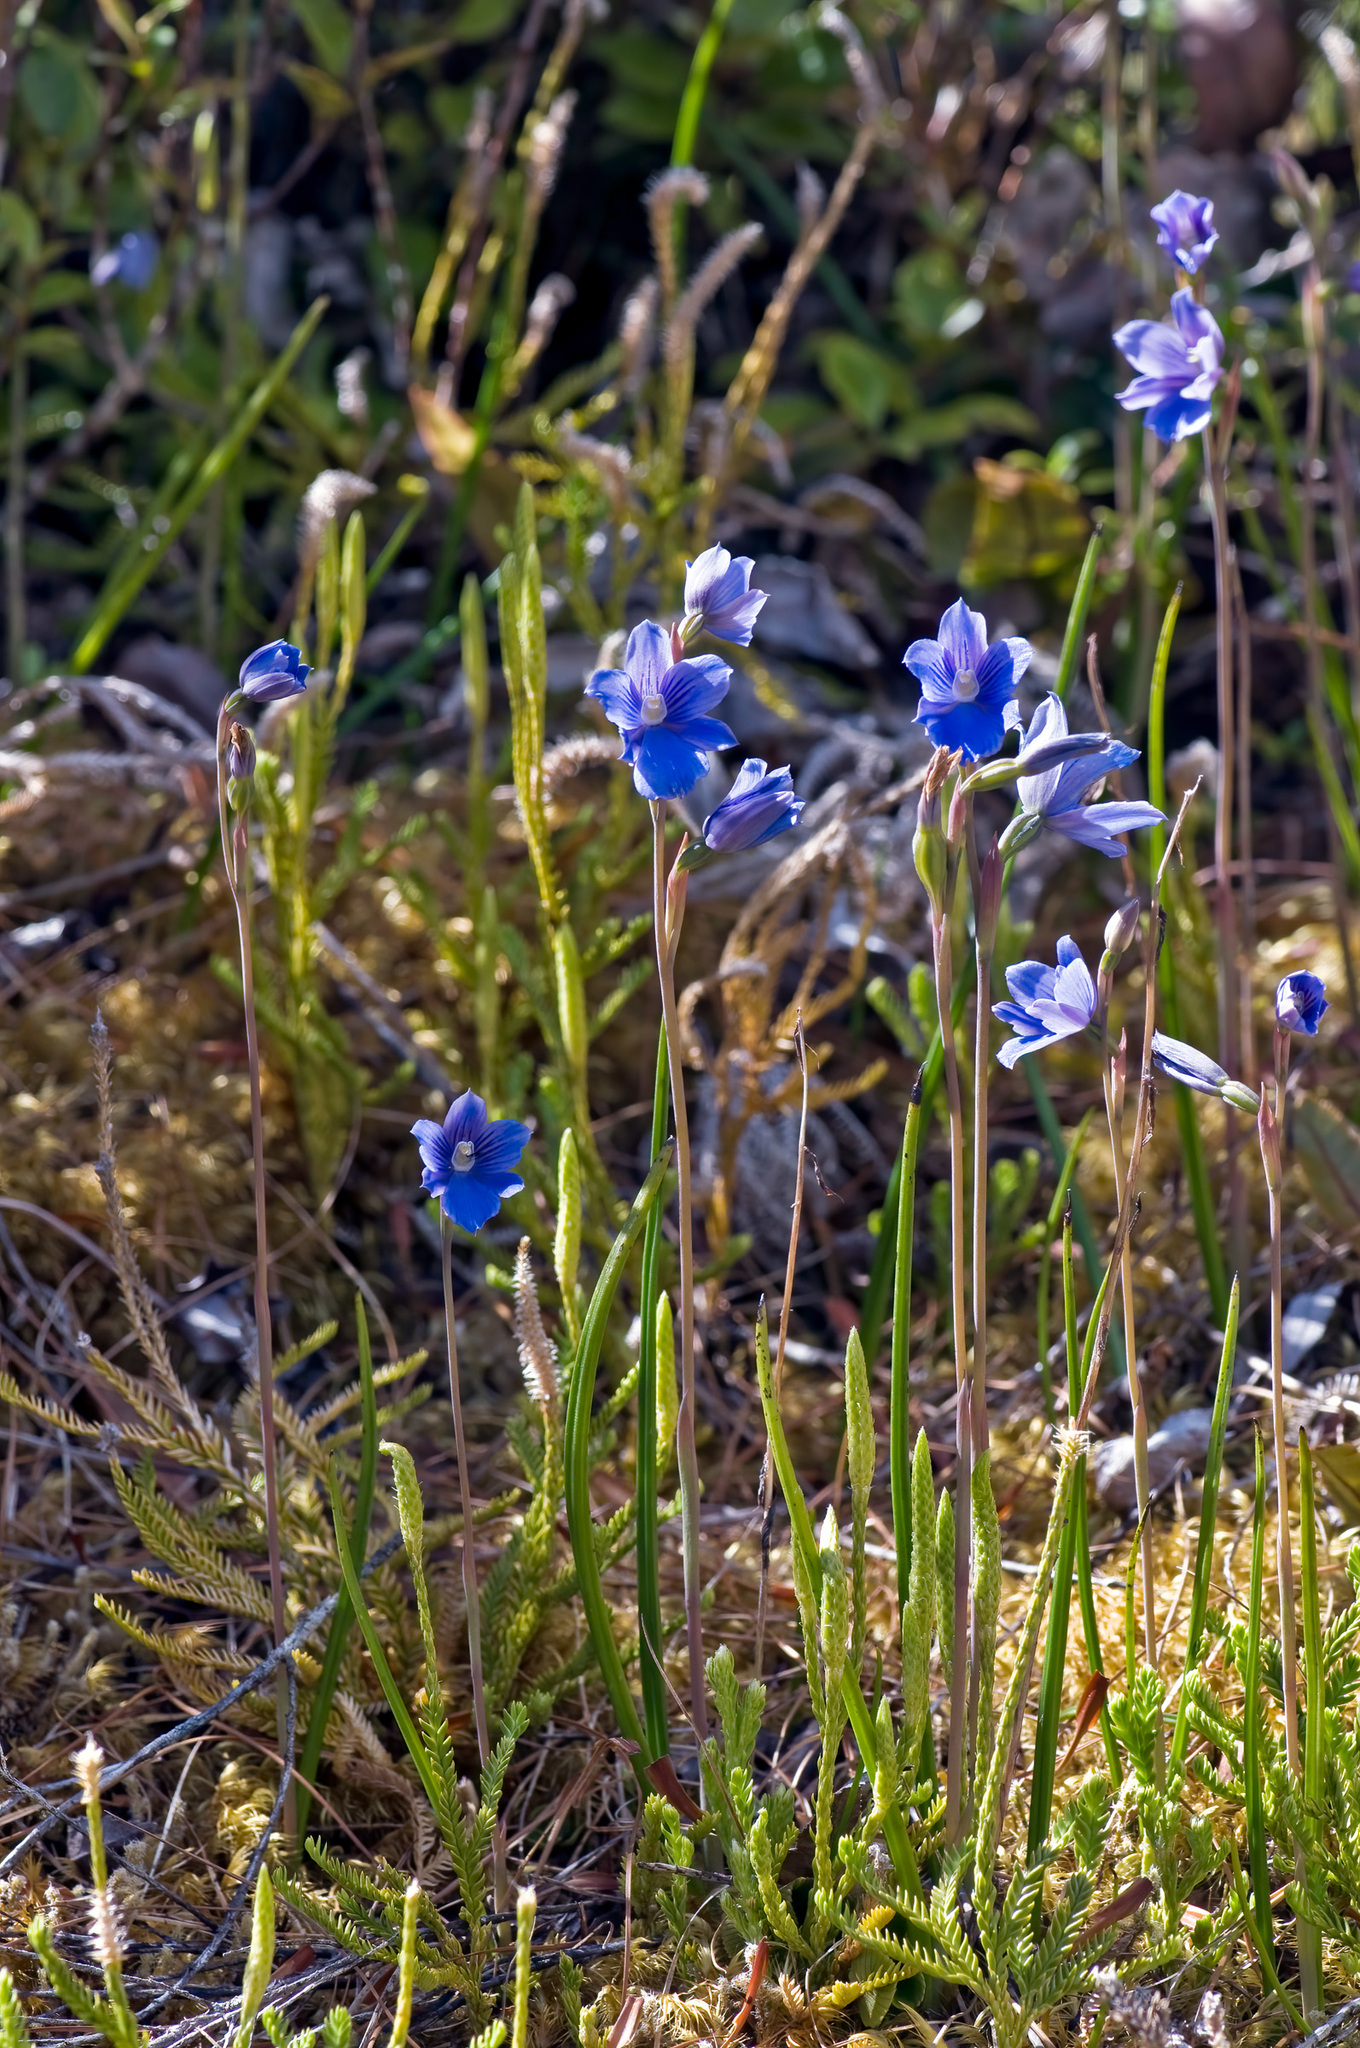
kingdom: Plantae
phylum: Tracheophyta
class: Liliopsida
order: Asparagales
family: Orchidaceae
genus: Thelymitra
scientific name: Thelymitra cyanea
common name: Blue sun-orchid
